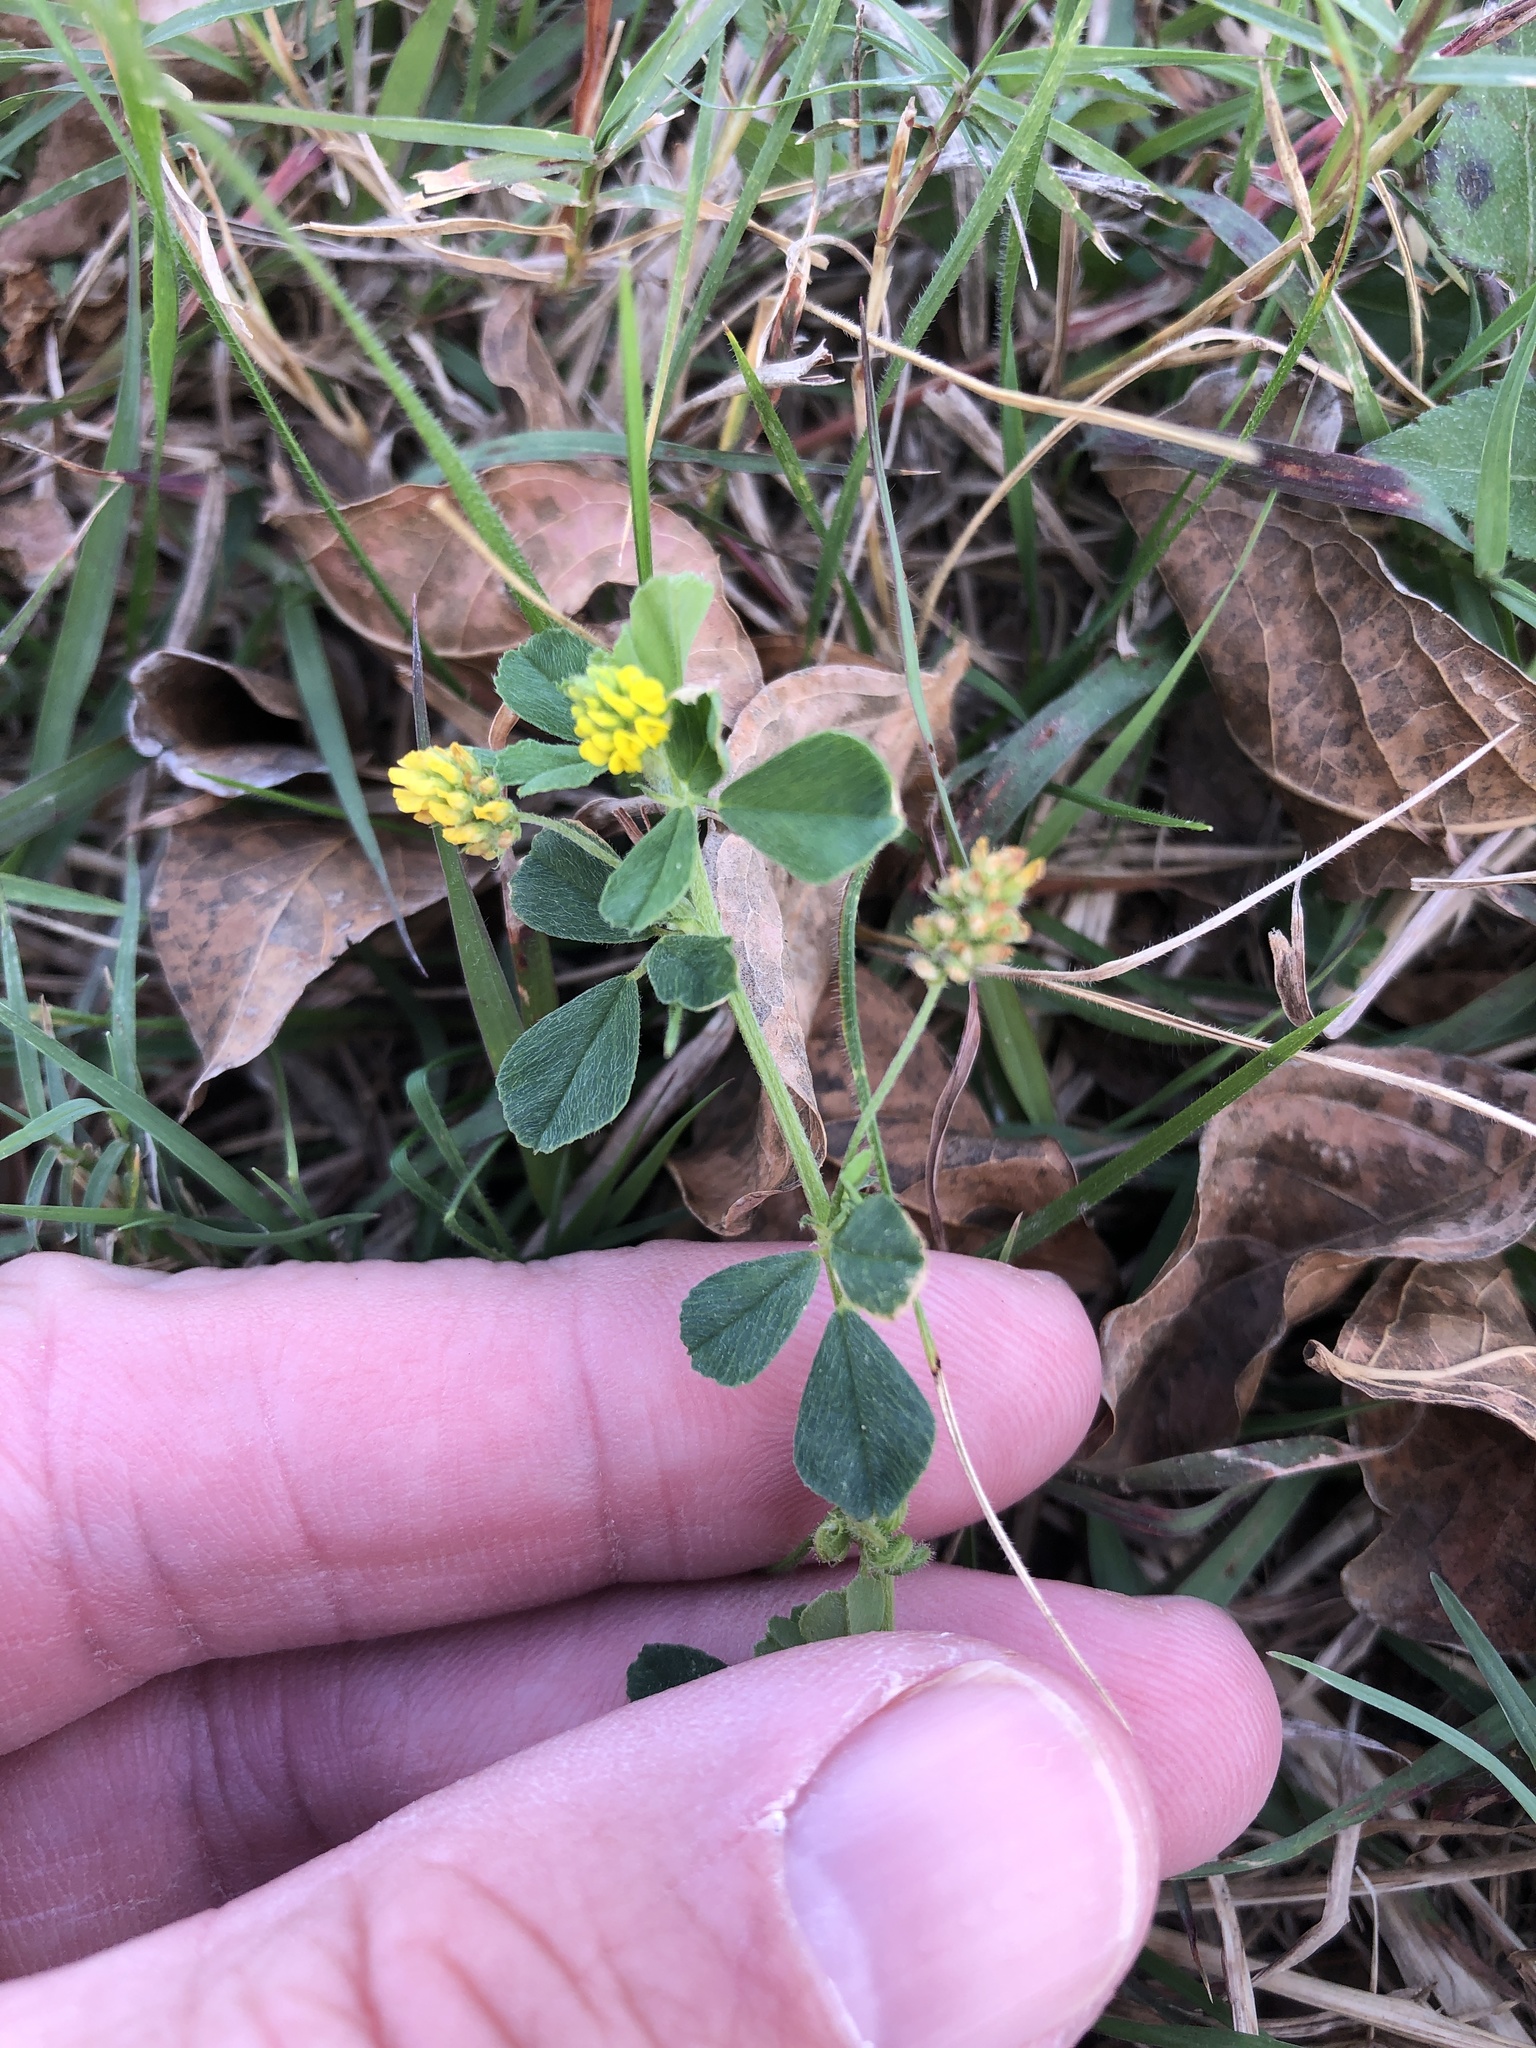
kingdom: Plantae
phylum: Tracheophyta
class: Magnoliopsida
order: Fabales
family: Fabaceae
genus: Medicago
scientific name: Medicago lupulina
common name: Black medick
